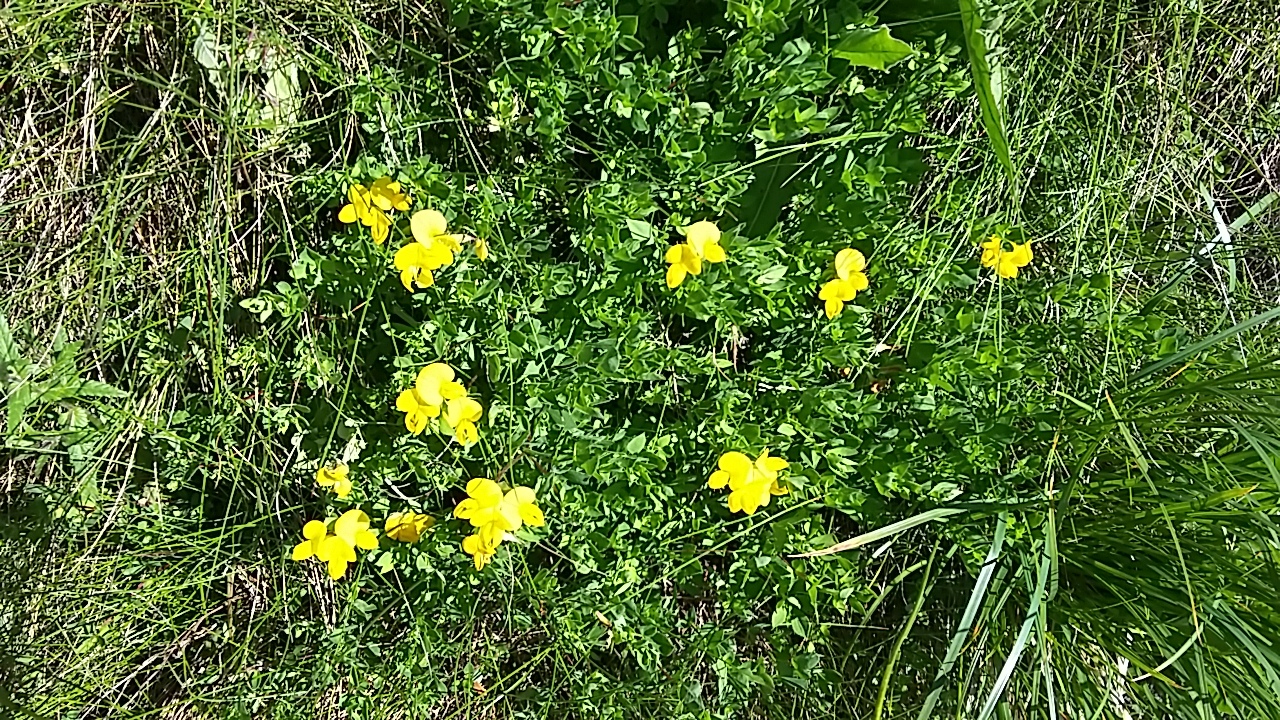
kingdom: Plantae
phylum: Tracheophyta
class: Magnoliopsida
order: Fabales
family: Fabaceae
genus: Lotus
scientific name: Lotus corniculatus
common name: Common bird's-foot-trefoil
